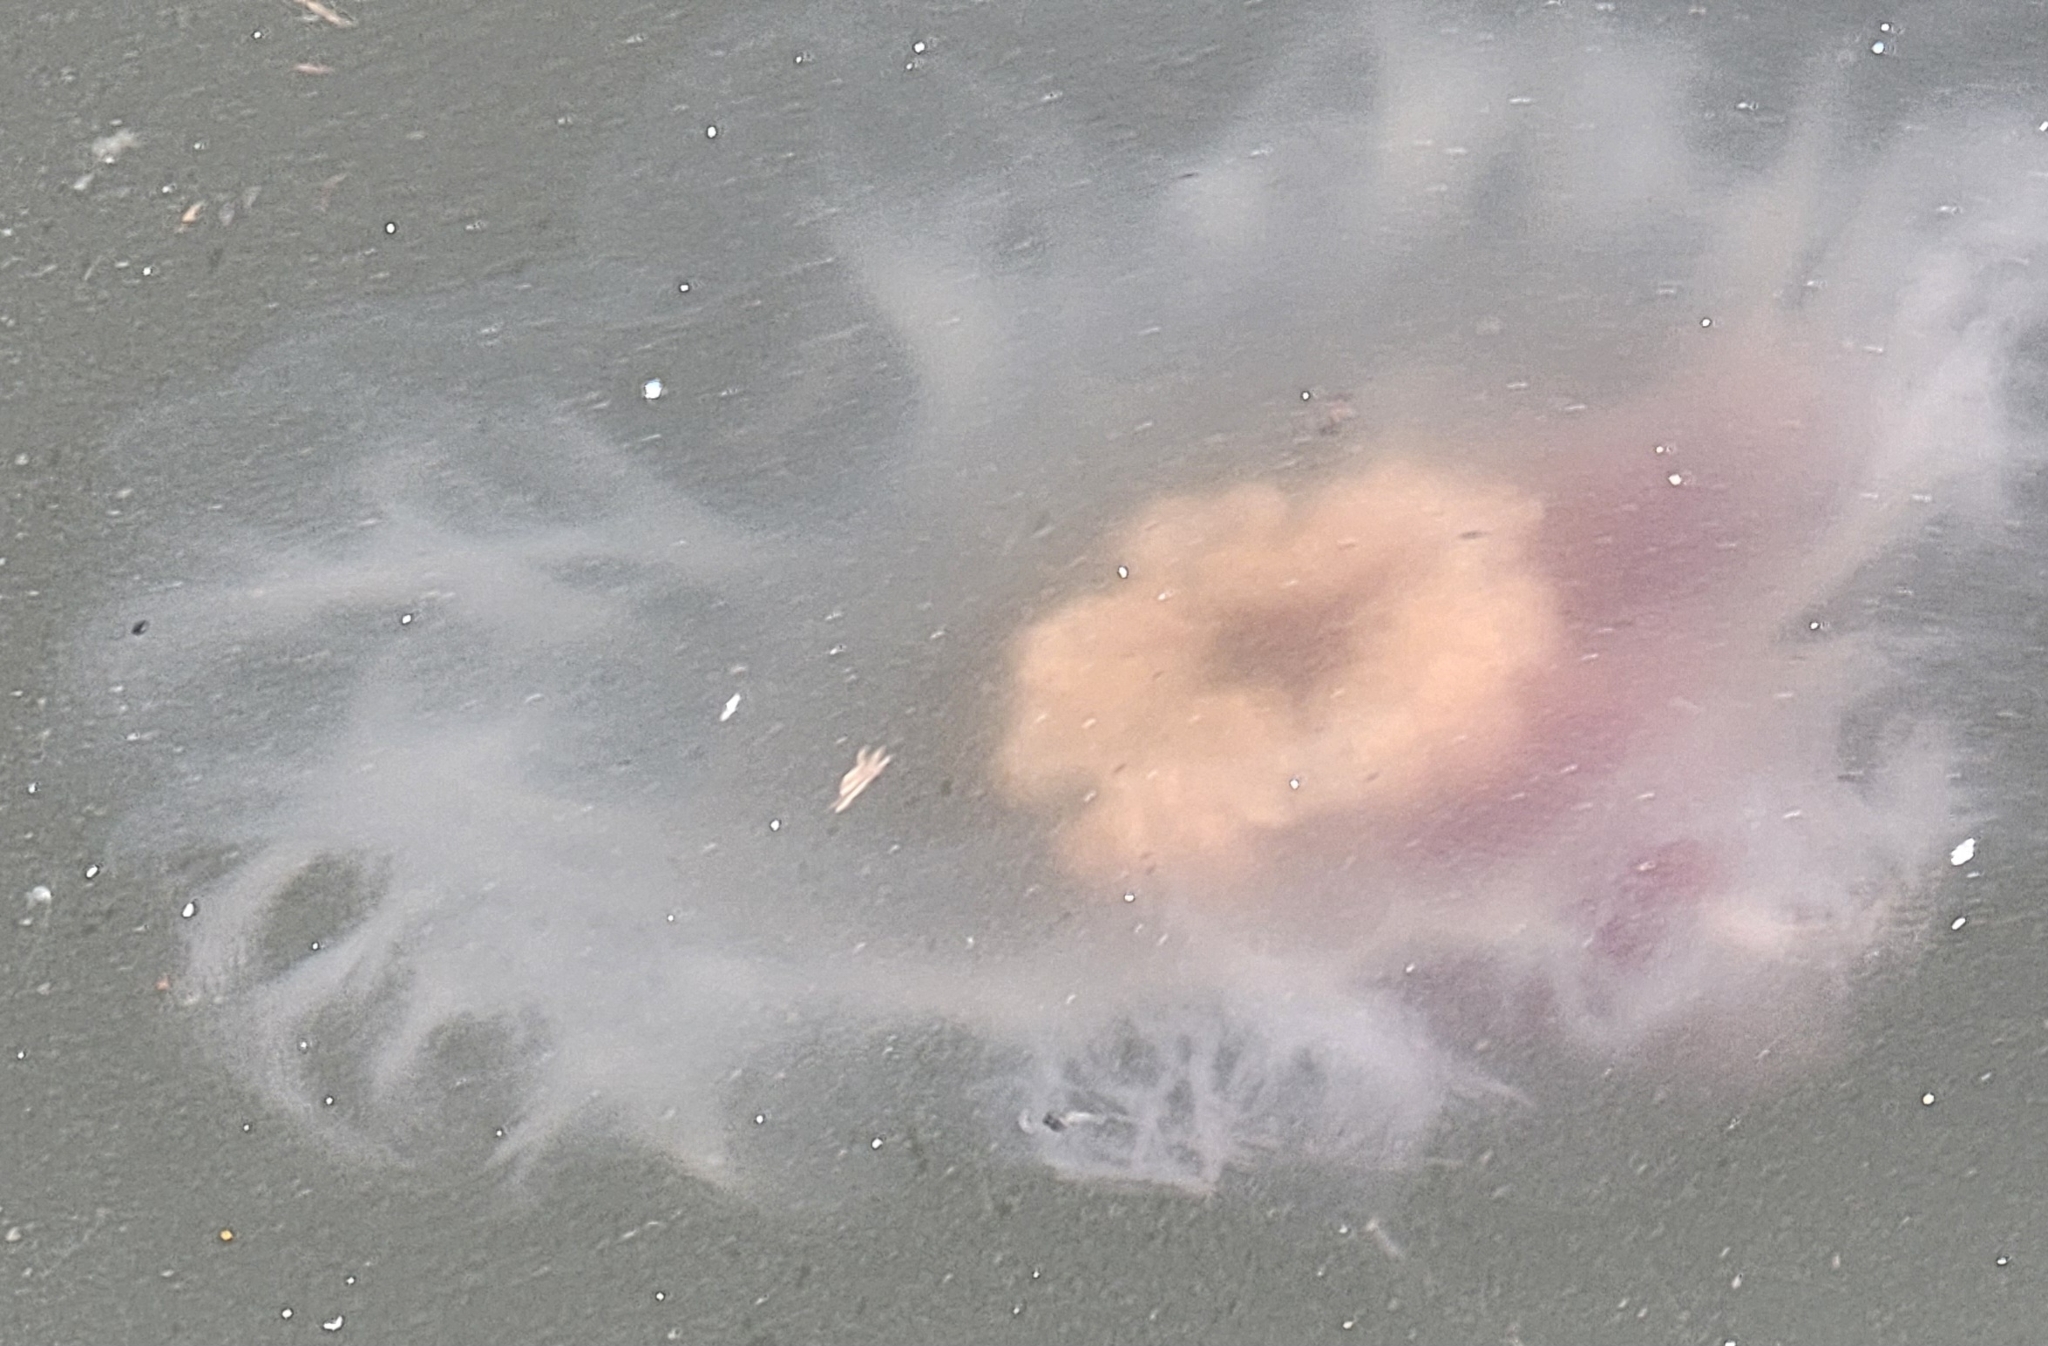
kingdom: Animalia
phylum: Cnidaria
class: Scyphozoa
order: Semaeostomeae
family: Cyaneidae
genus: Cyanea
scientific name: Cyanea fulva
